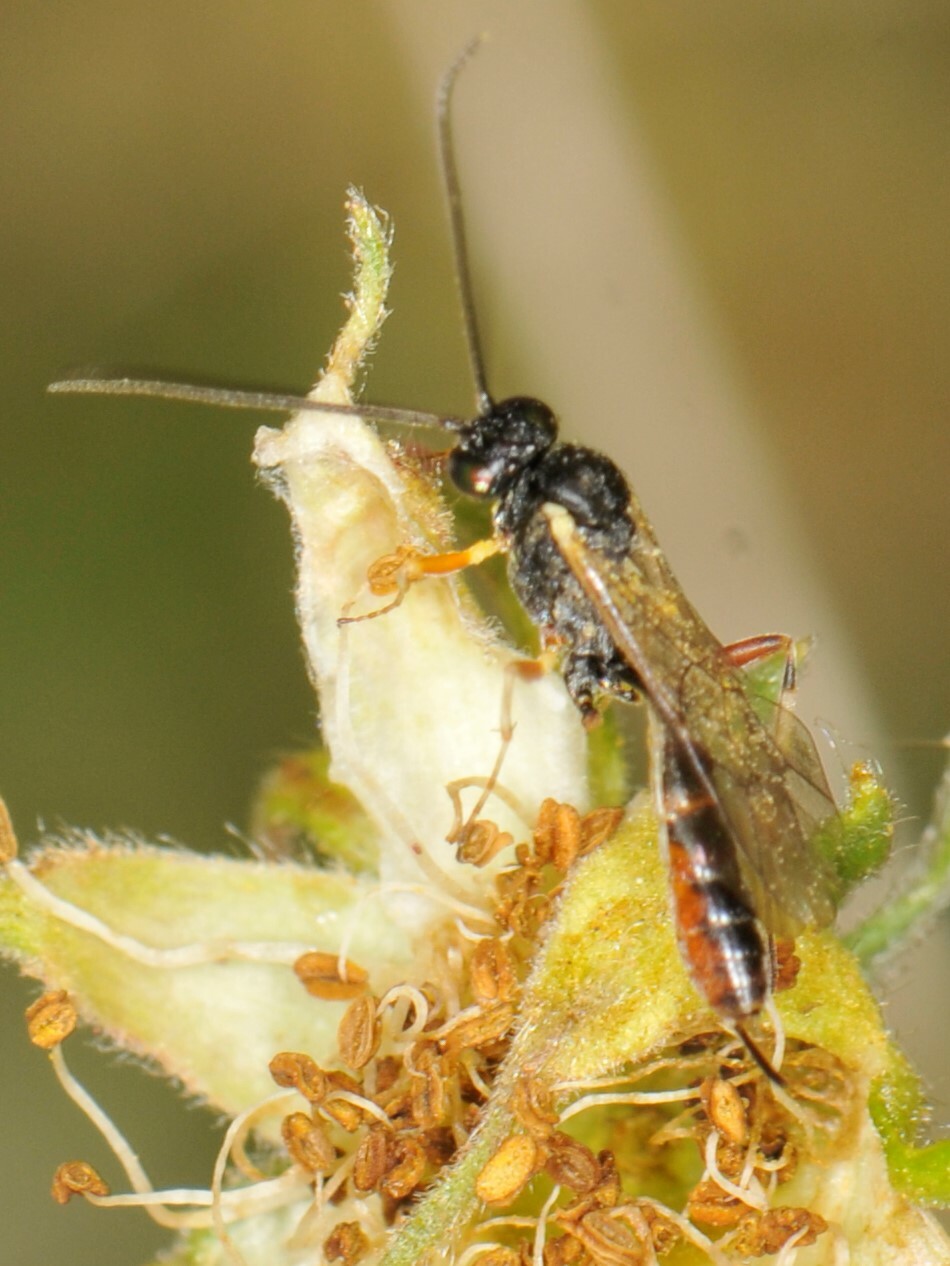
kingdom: Animalia
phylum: Arthropoda
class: Insecta
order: Hymenoptera
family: Ichneumonidae
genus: Campoletis
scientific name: Campoletis sonorensis
